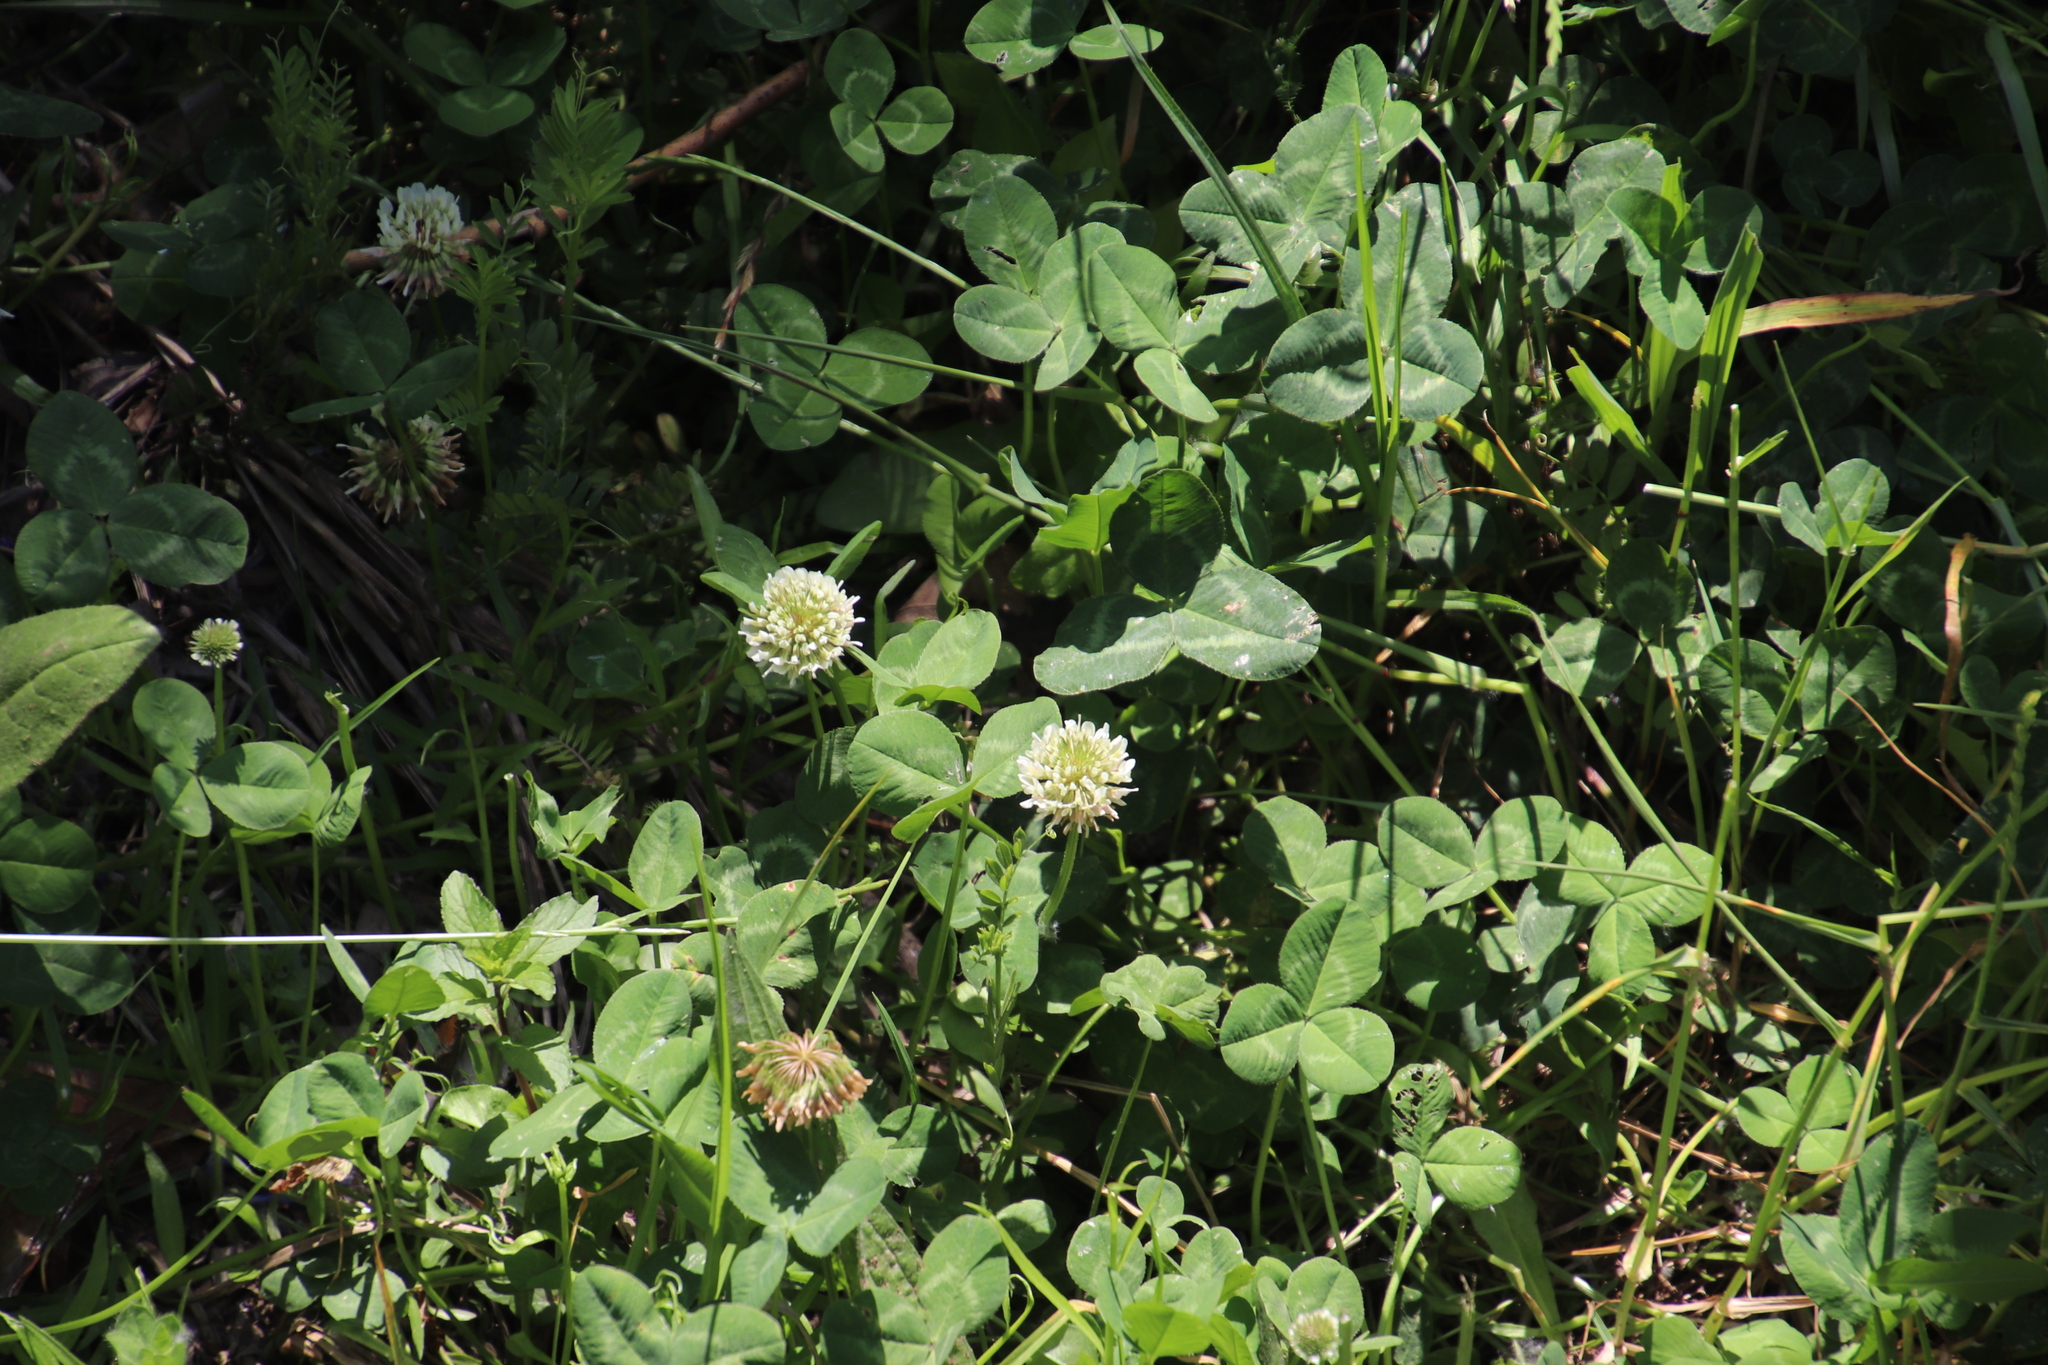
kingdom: Plantae
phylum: Tracheophyta
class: Magnoliopsida
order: Fabales
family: Fabaceae
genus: Trifolium
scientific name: Trifolium repens
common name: White clover
